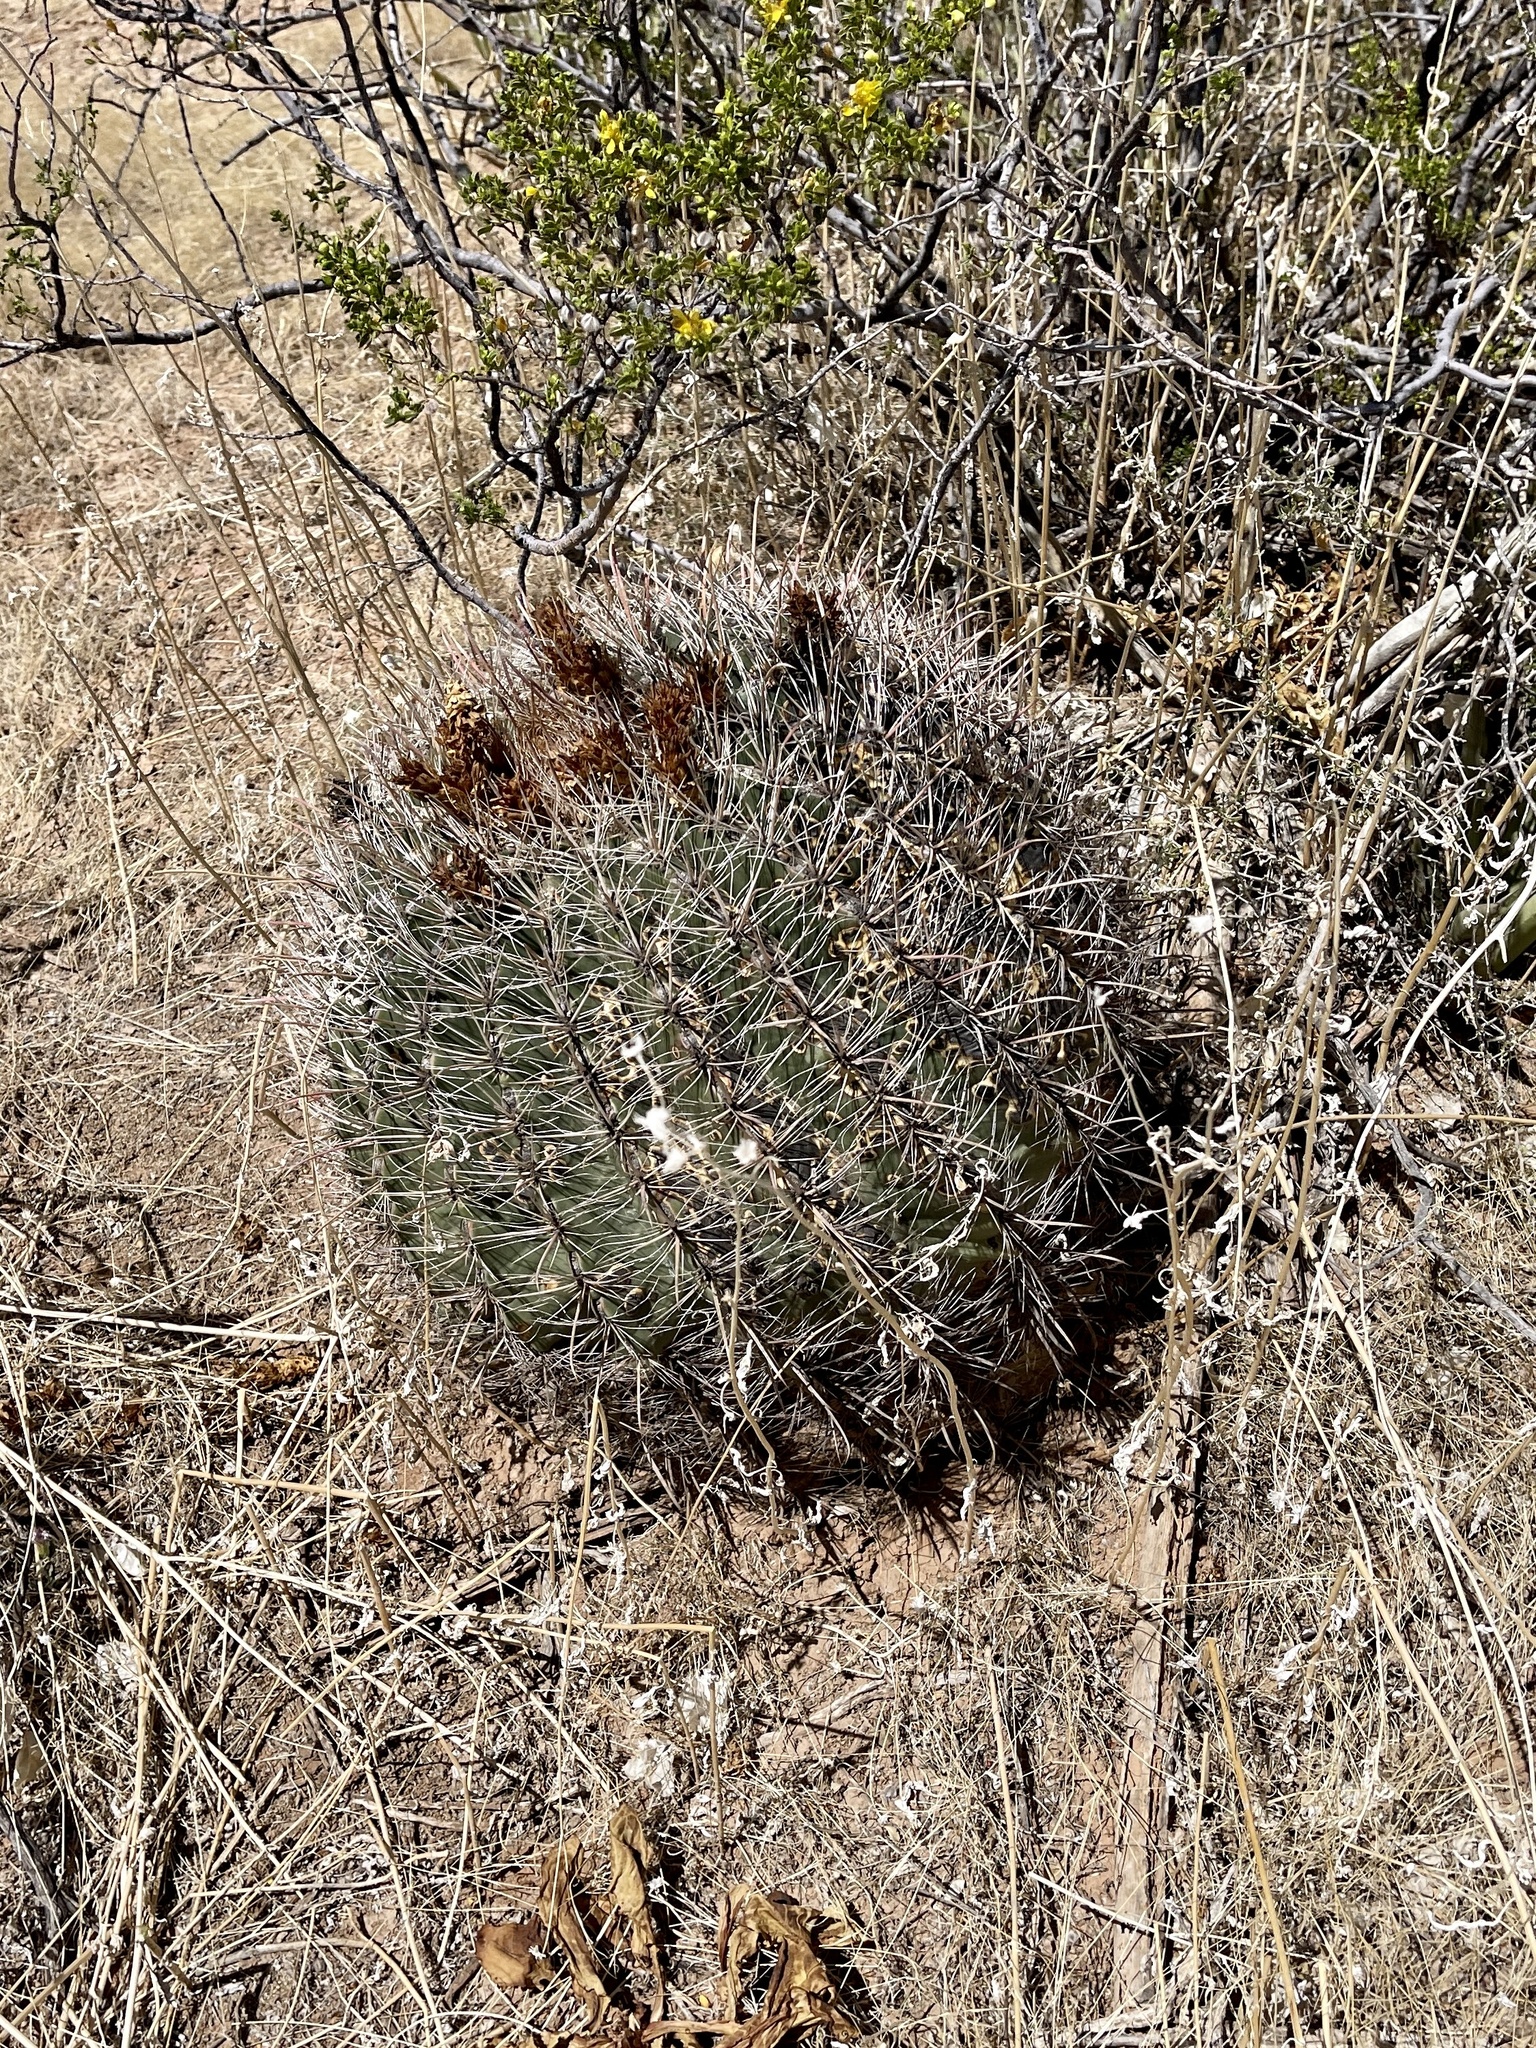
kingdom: Plantae
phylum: Tracheophyta
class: Magnoliopsida
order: Caryophyllales
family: Cactaceae
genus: Ferocactus
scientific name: Ferocactus wislizeni
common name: Candy barrel cactus
